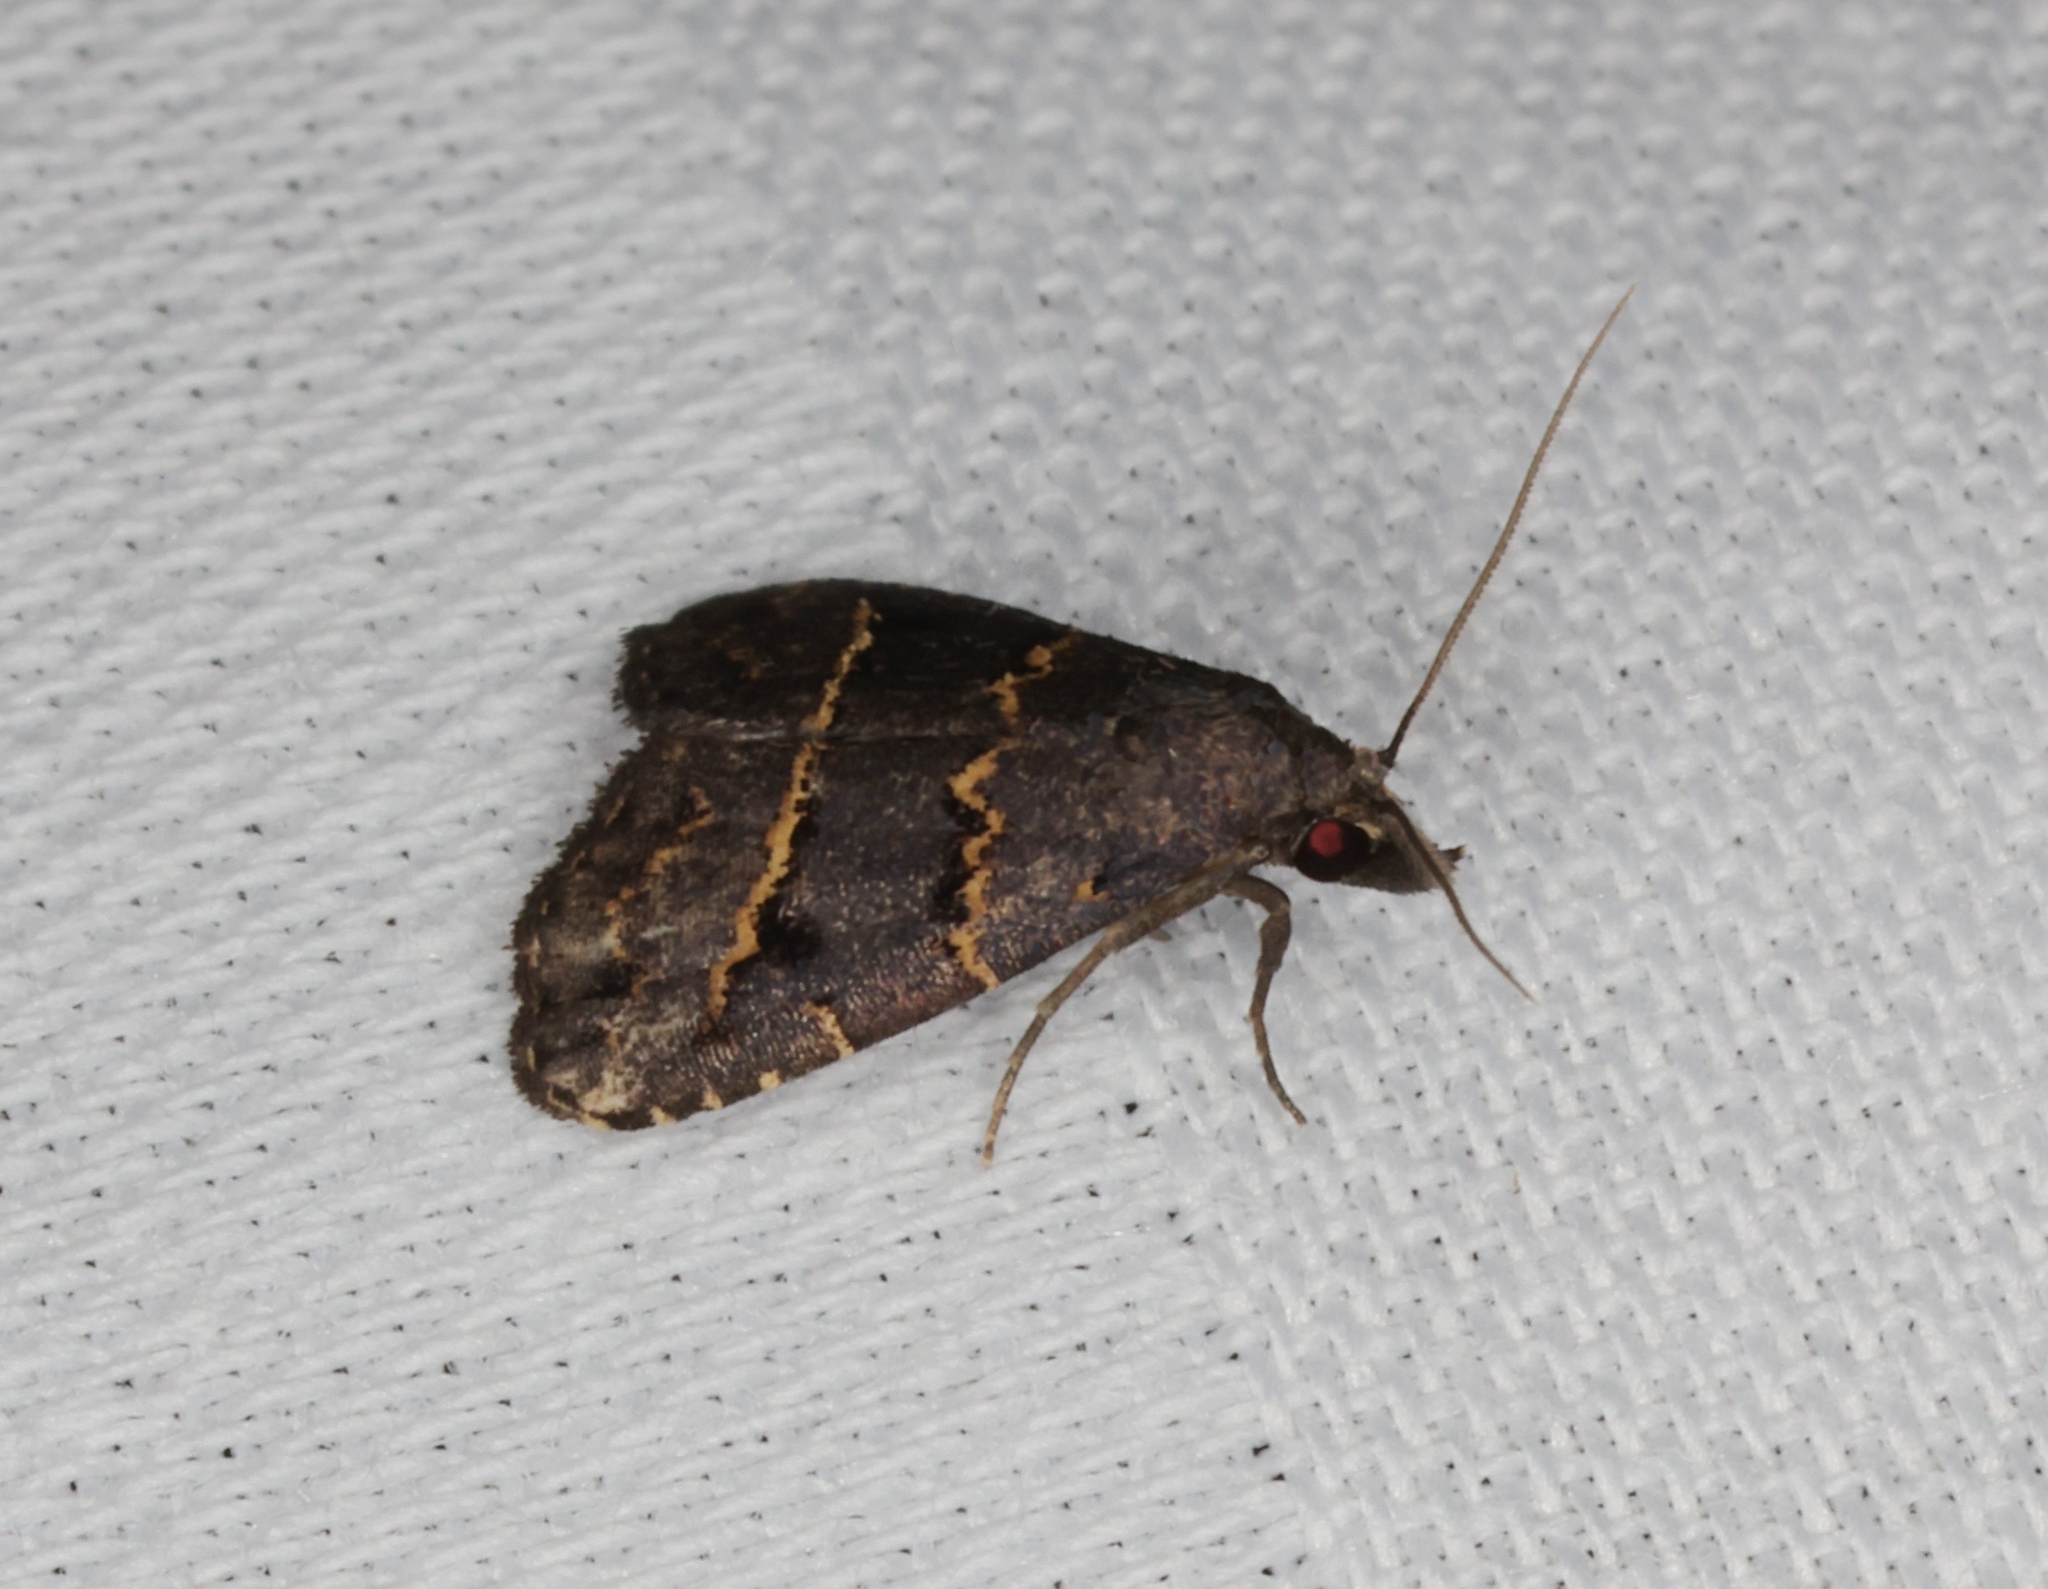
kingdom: Animalia
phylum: Arthropoda
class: Insecta
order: Lepidoptera
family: Erebidae
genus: Schrankia
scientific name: Schrankia bilineata
